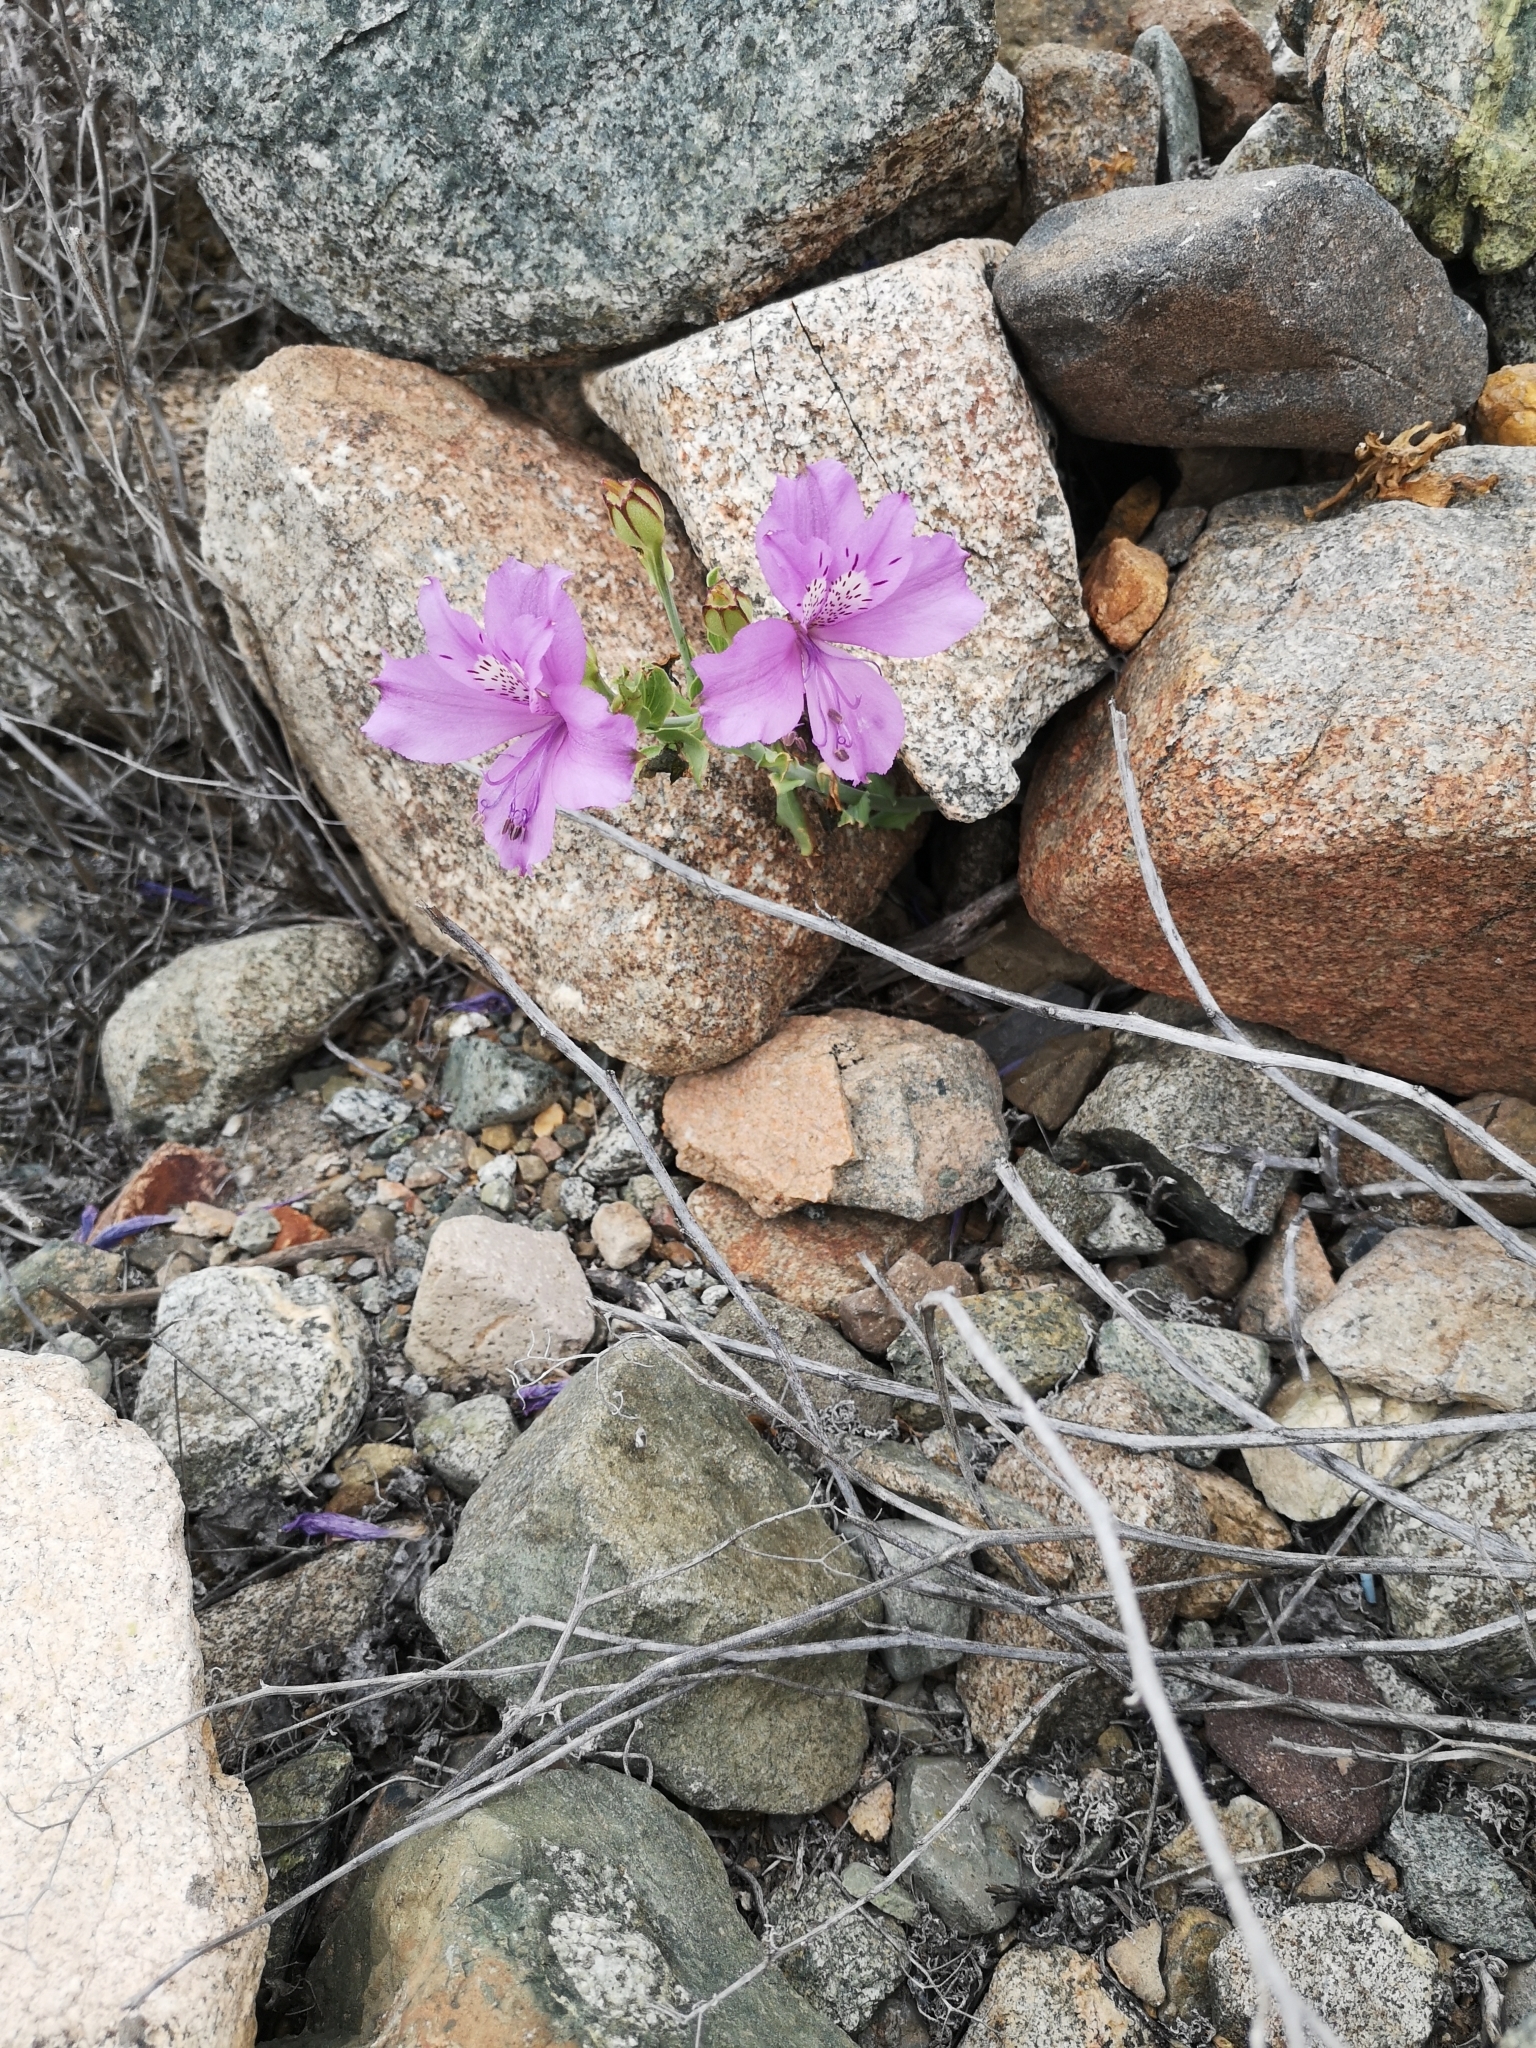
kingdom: Plantae
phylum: Tracheophyta
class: Liliopsida
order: Liliales
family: Alstroemeriaceae
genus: Alstroemeria
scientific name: Alstroemeria violacea
